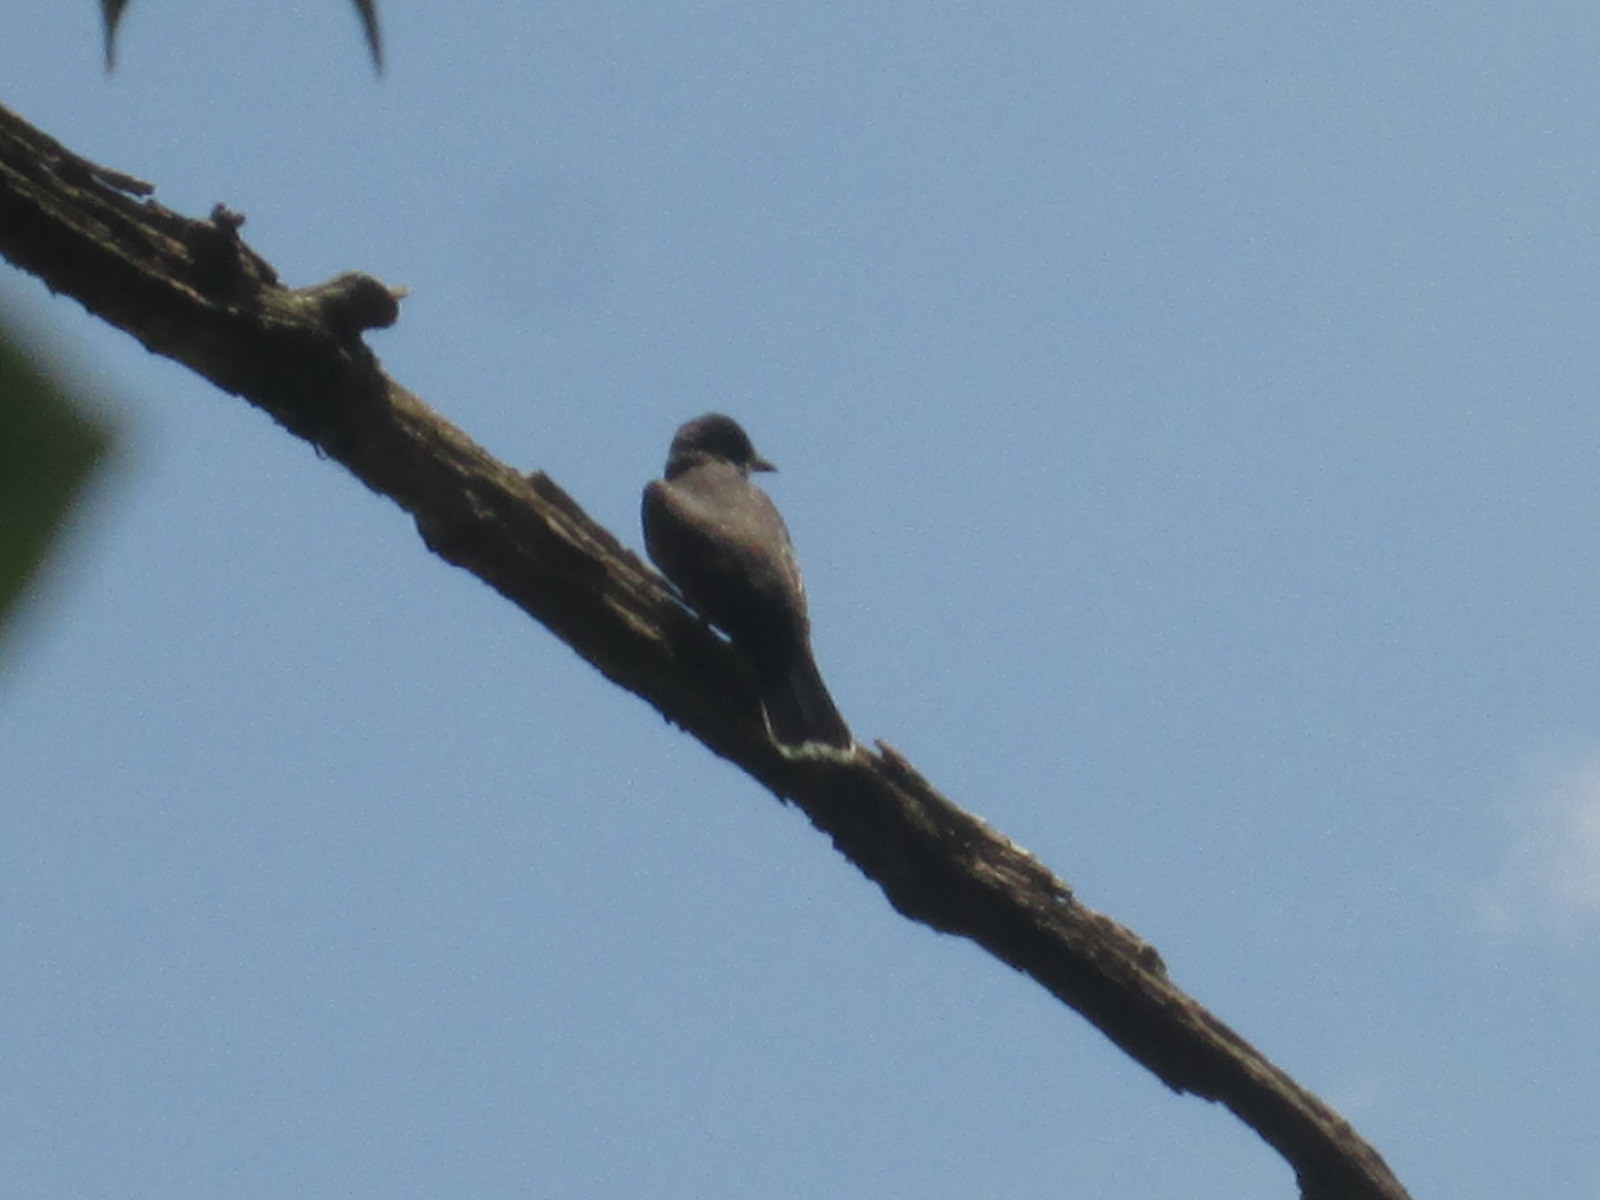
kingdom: Animalia
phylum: Chordata
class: Aves
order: Passeriformes
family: Tyrannidae
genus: Tyrannus
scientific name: Tyrannus tyrannus
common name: Eastern kingbird
